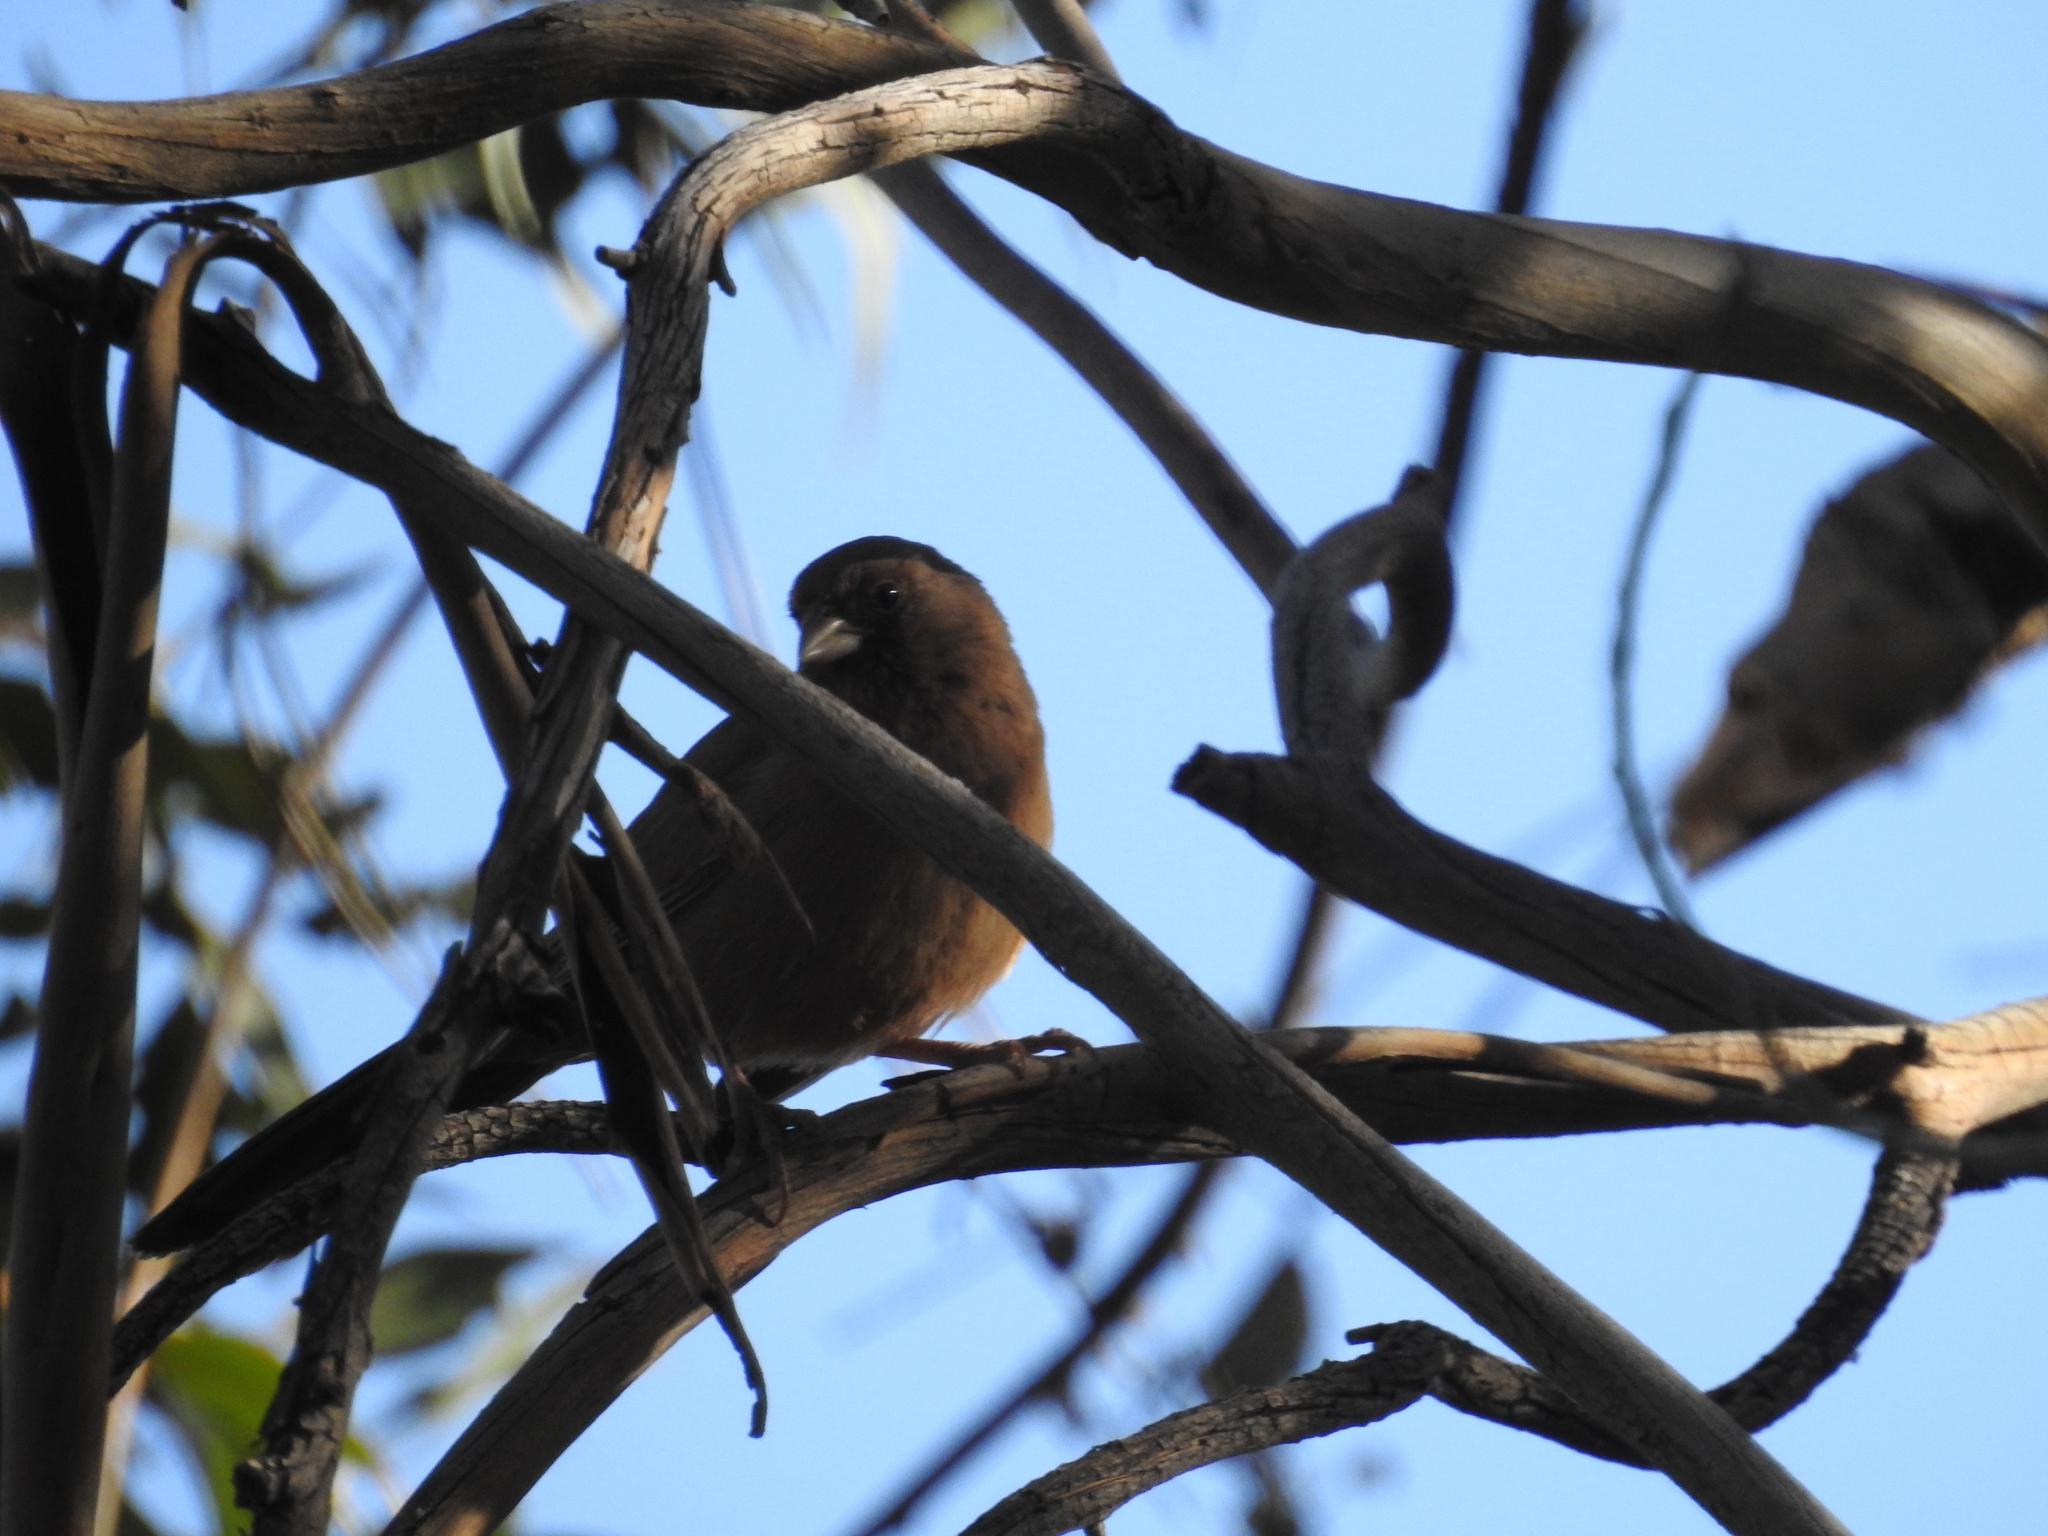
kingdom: Animalia
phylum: Chordata
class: Aves
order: Passeriformes
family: Passerellidae
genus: Melozone
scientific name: Melozone aberti
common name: Abert's towhee
